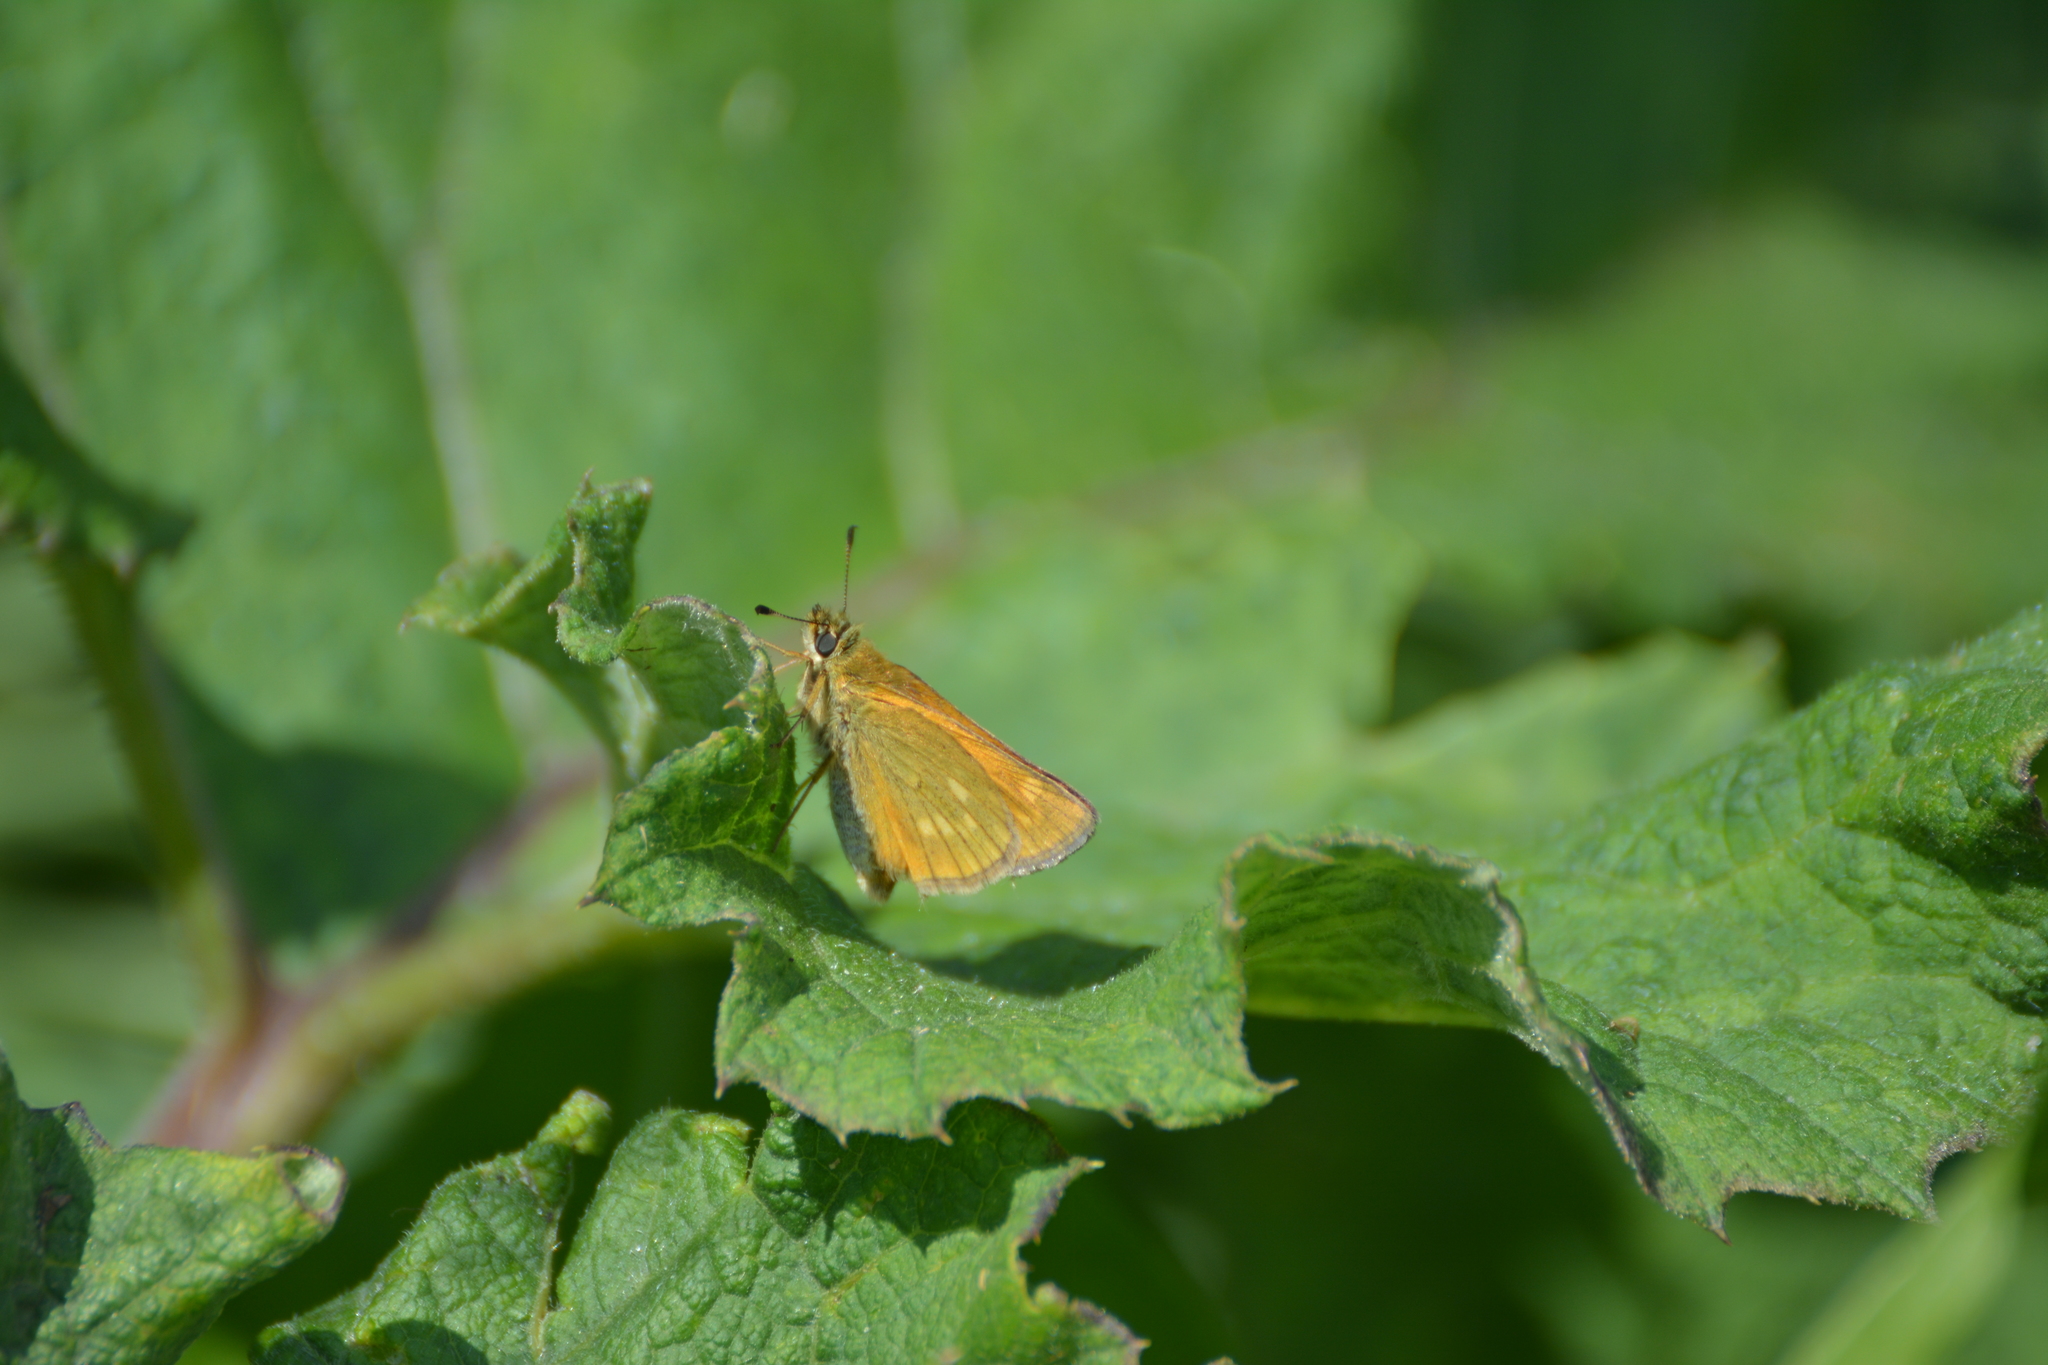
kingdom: Animalia
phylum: Arthropoda
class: Insecta
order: Lepidoptera
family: Hesperiidae
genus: Ochlodes
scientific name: Ochlodes venata
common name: Large skipper
